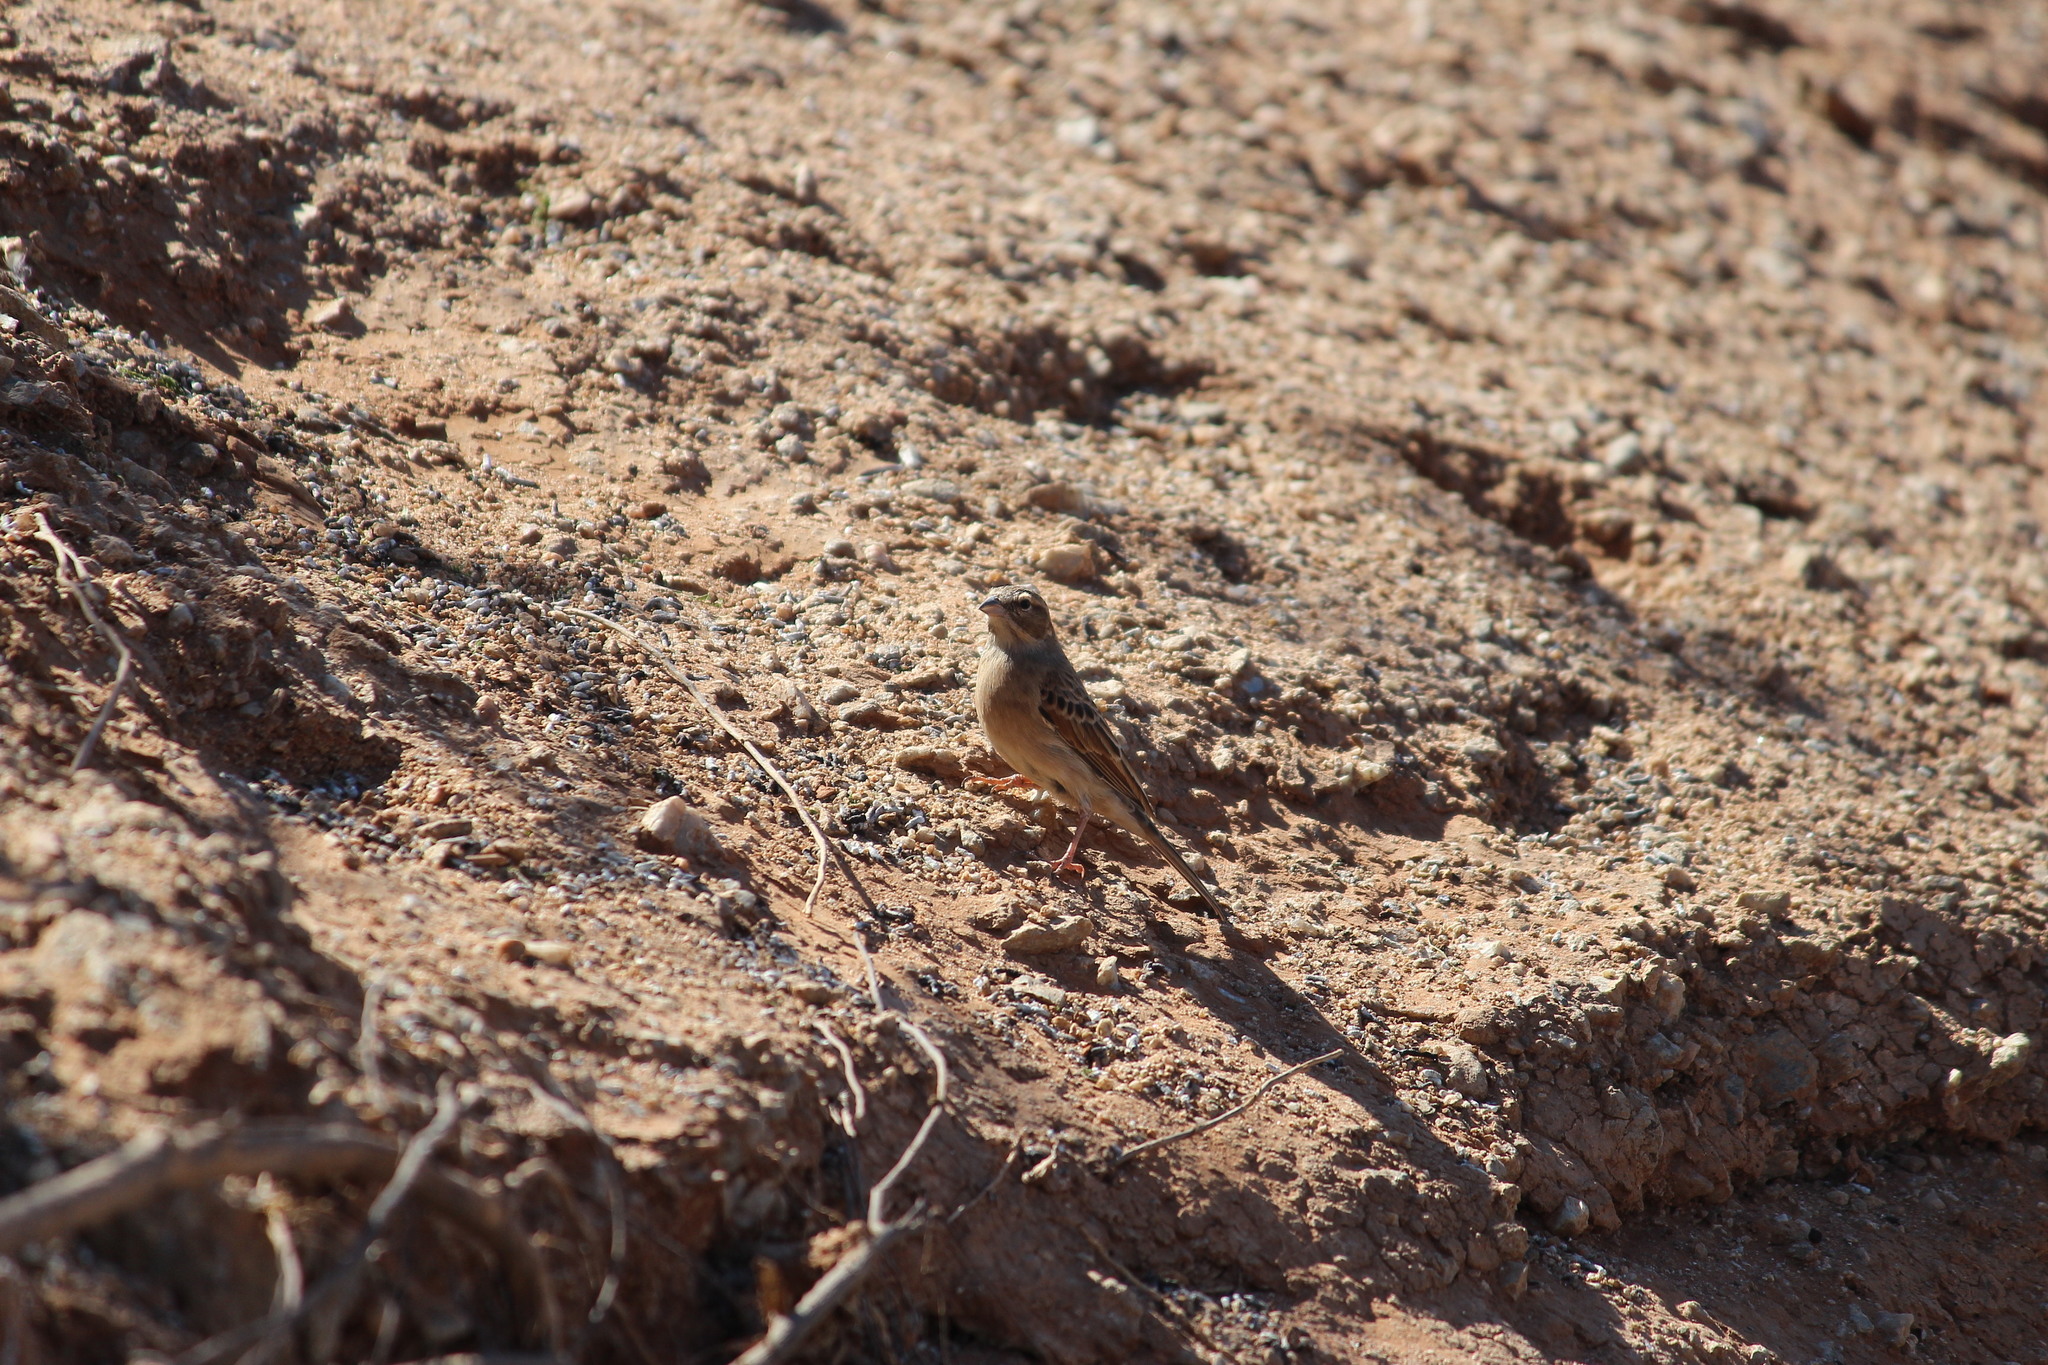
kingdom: Animalia
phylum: Chordata
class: Aves
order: Passeriformes
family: Emberizidae
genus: Emberiza
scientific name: Emberiza impetuani
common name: Lark-like bunting
